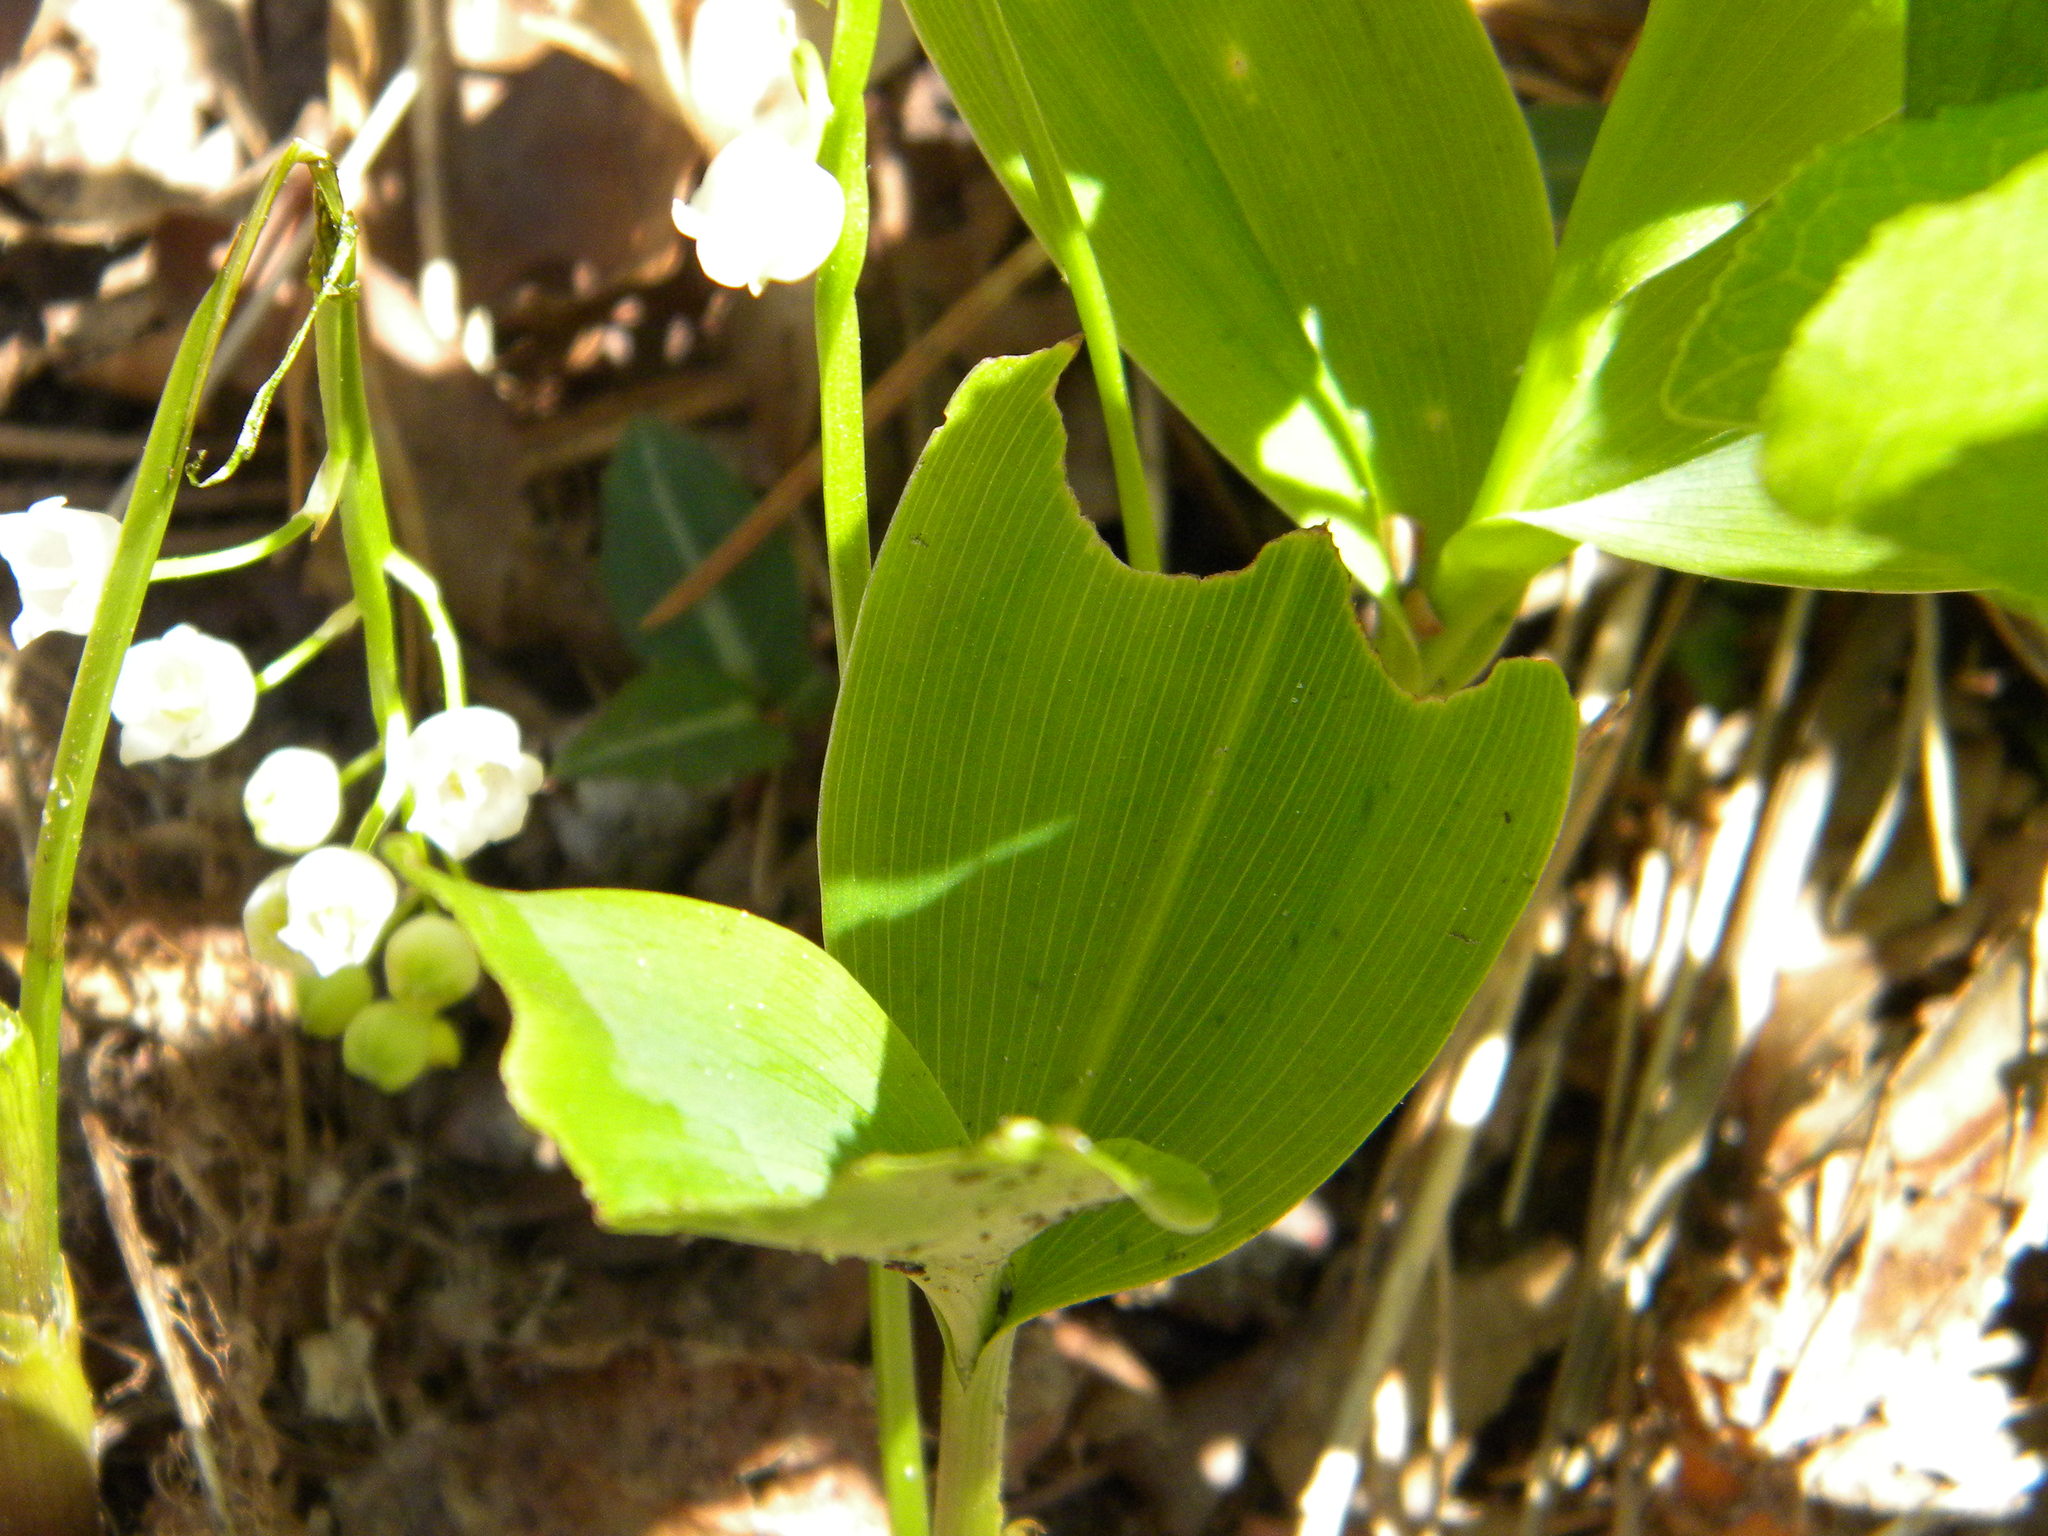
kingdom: Plantae
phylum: Tracheophyta
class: Liliopsida
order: Asparagales
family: Asparagaceae
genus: Convallaria
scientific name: Convallaria majalis
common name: Lily-of-the-valley
